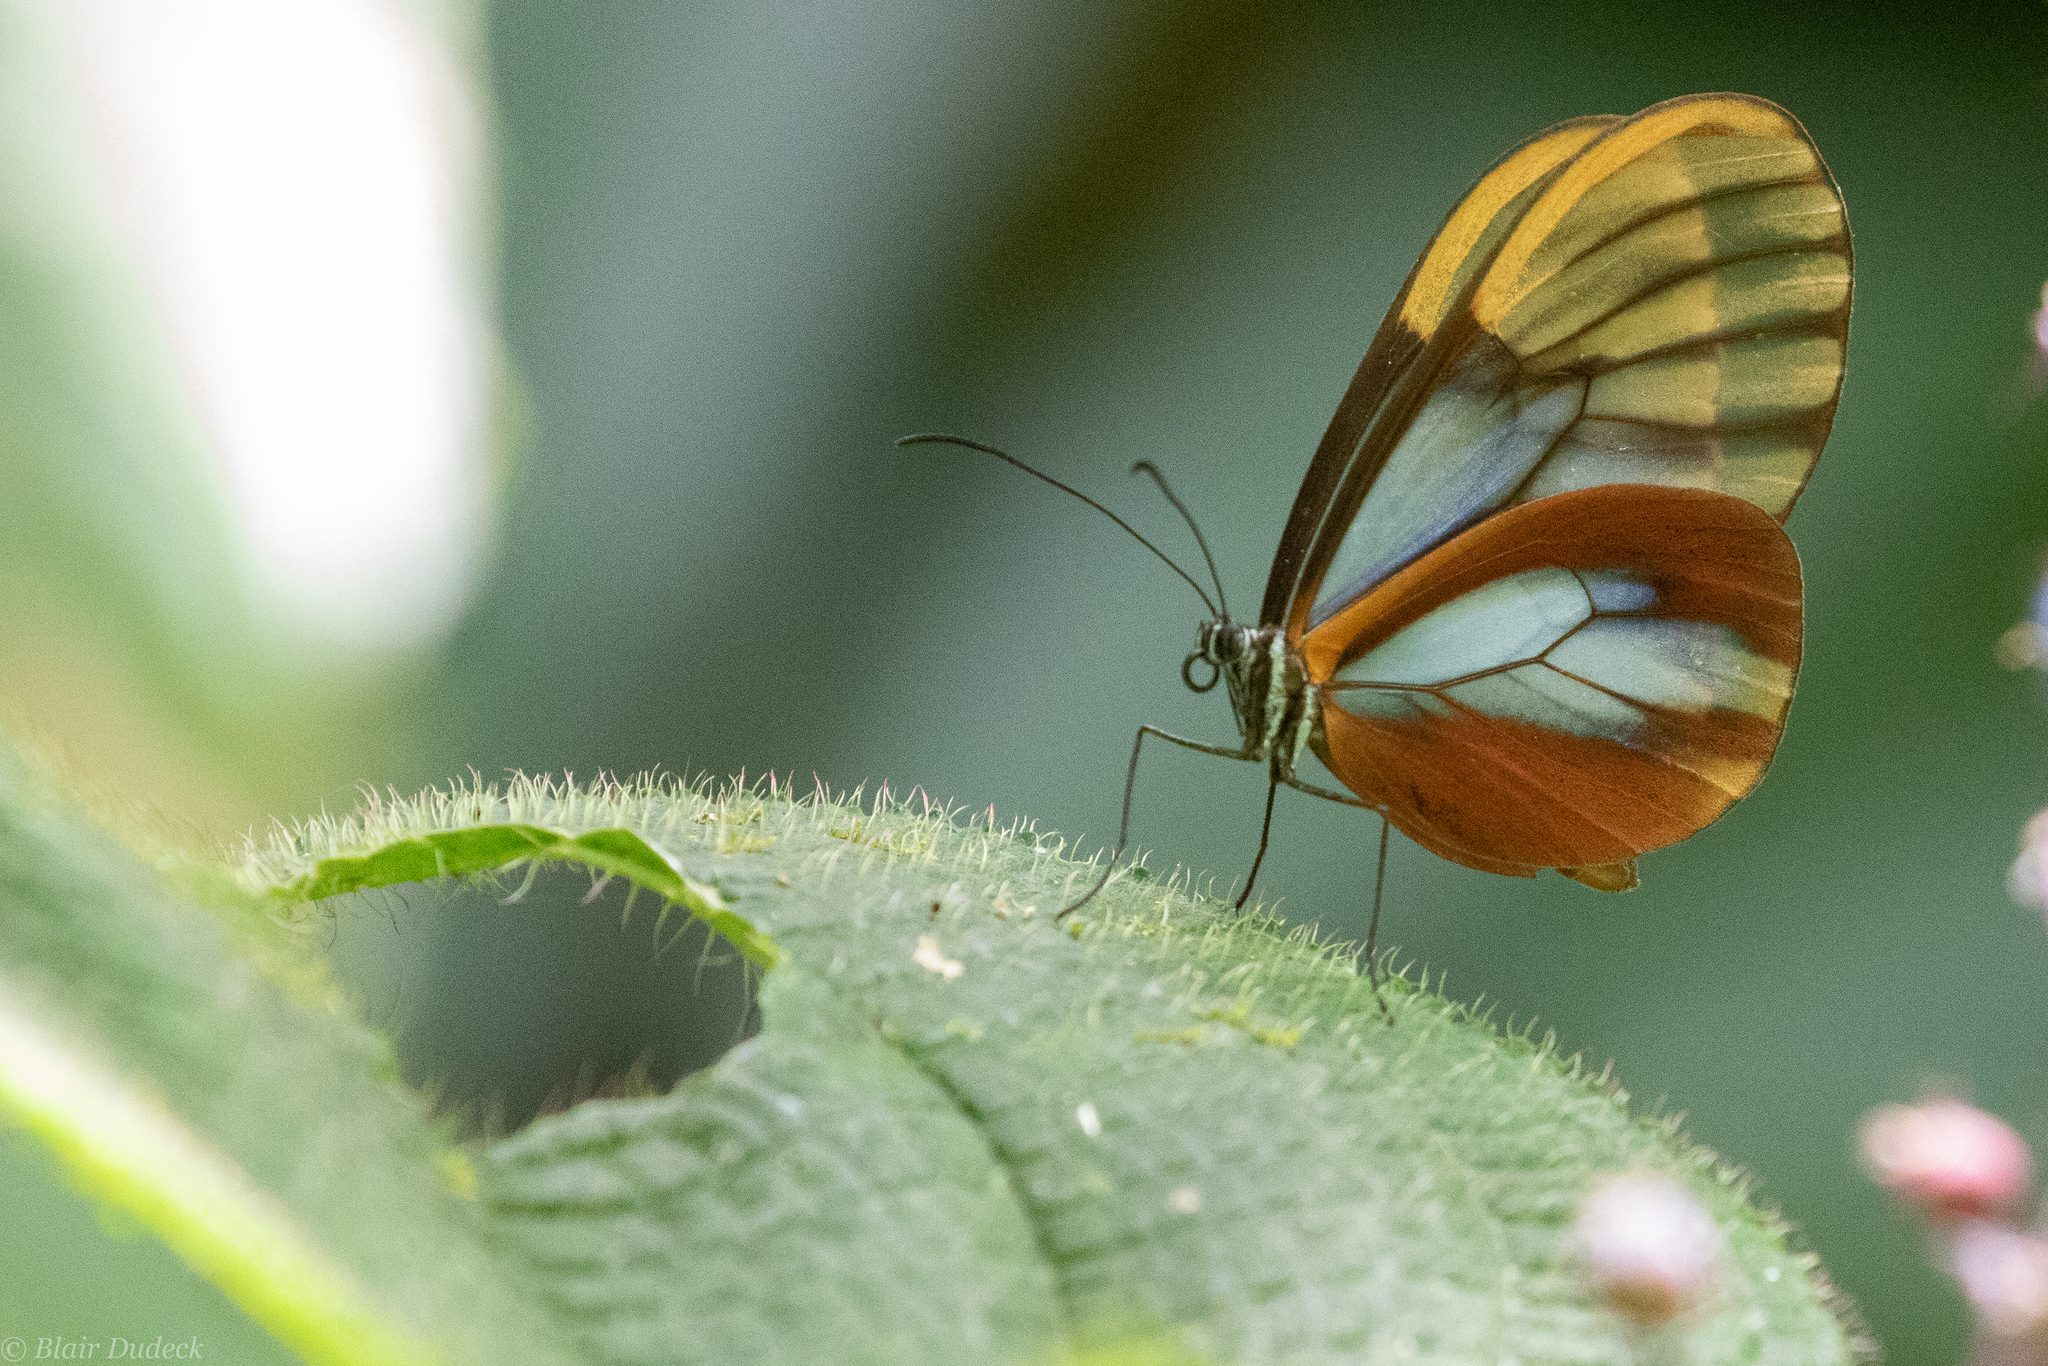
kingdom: Animalia
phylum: Arthropoda
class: Insecta
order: Lepidoptera
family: Nymphalidae
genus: Hypomenitis
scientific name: Hypomenitis
